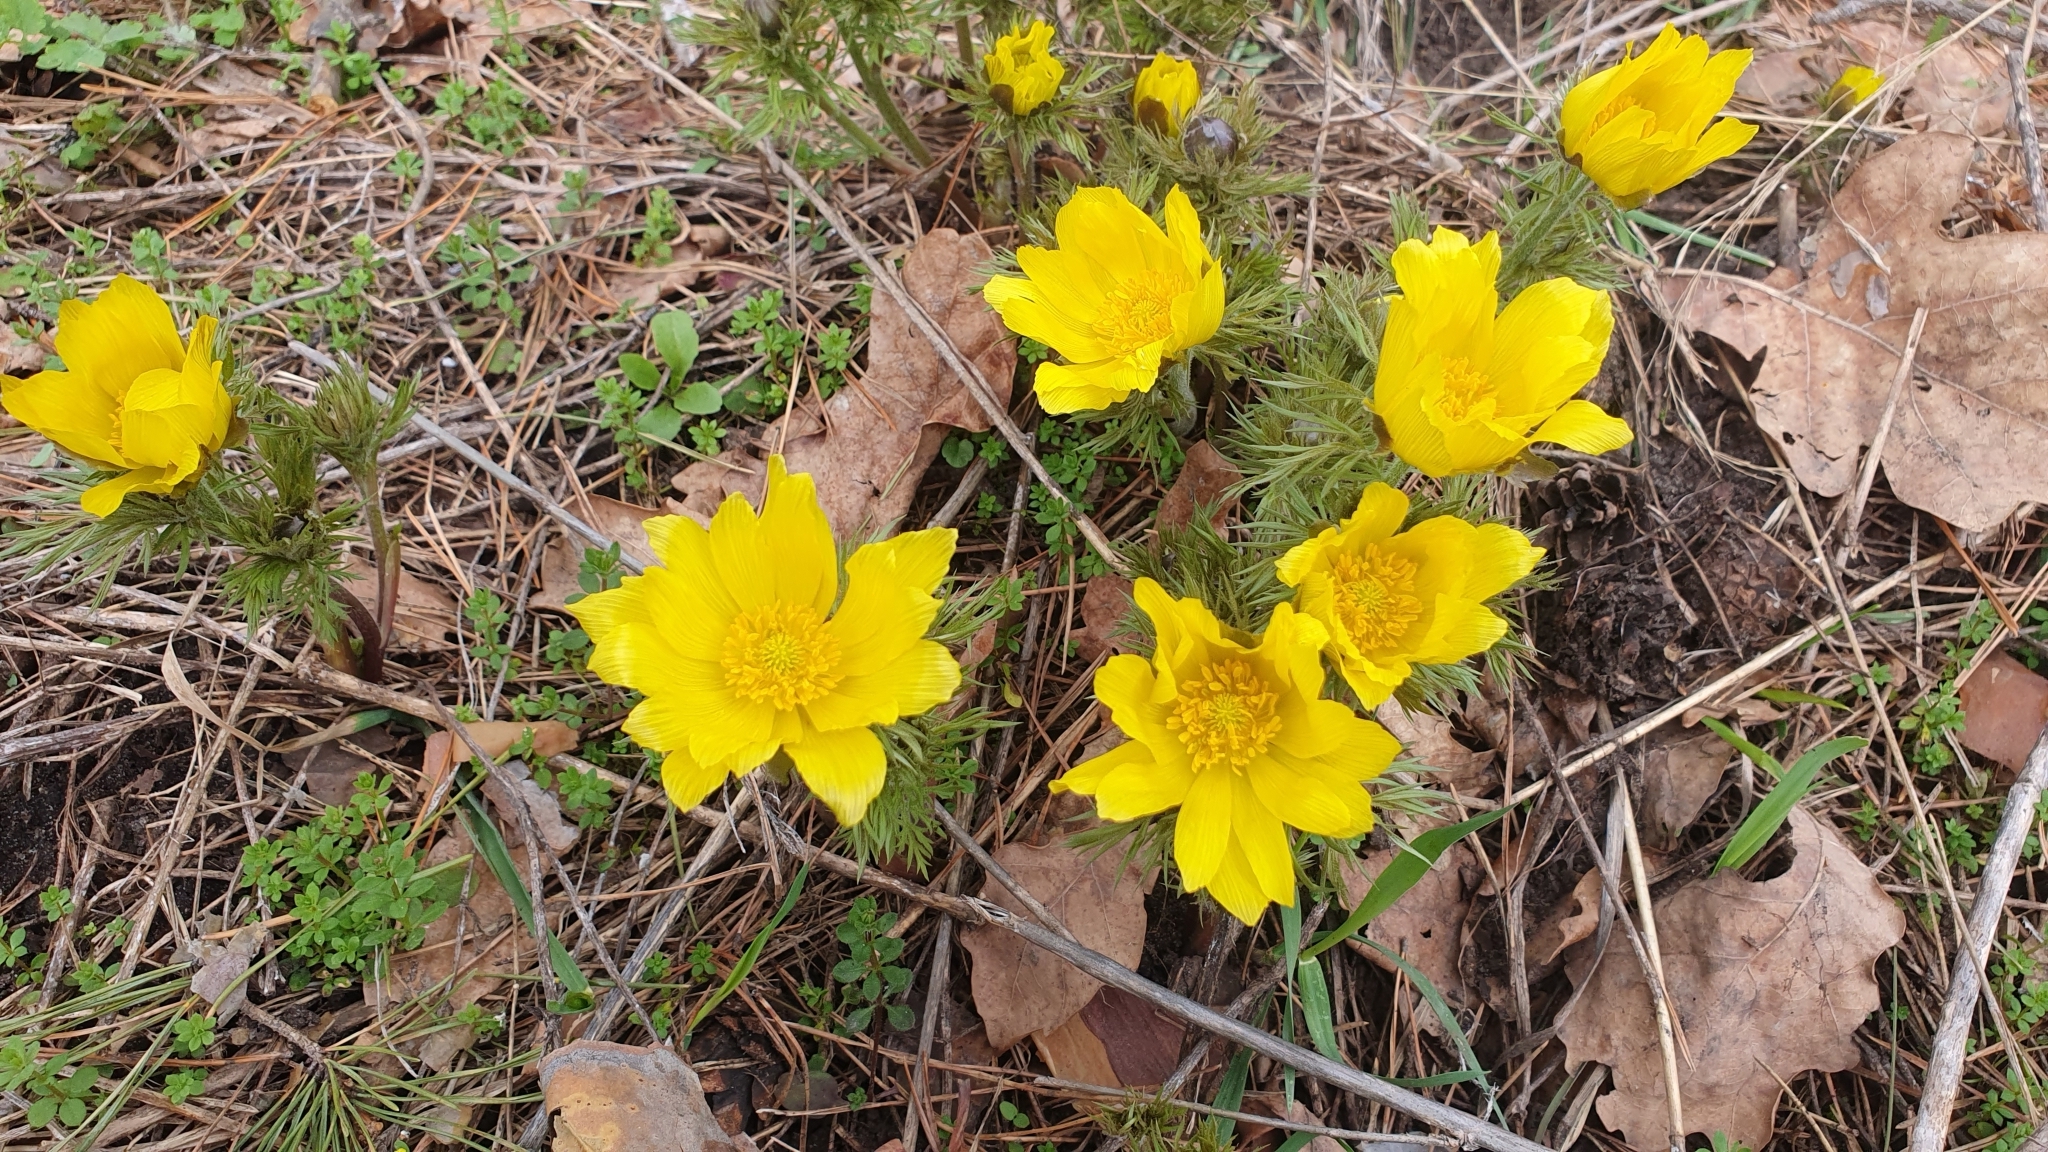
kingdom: Plantae
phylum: Tracheophyta
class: Magnoliopsida
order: Ranunculales
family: Ranunculaceae
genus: Adonis
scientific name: Adonis vernalis
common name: Yellow pheasants-eye
